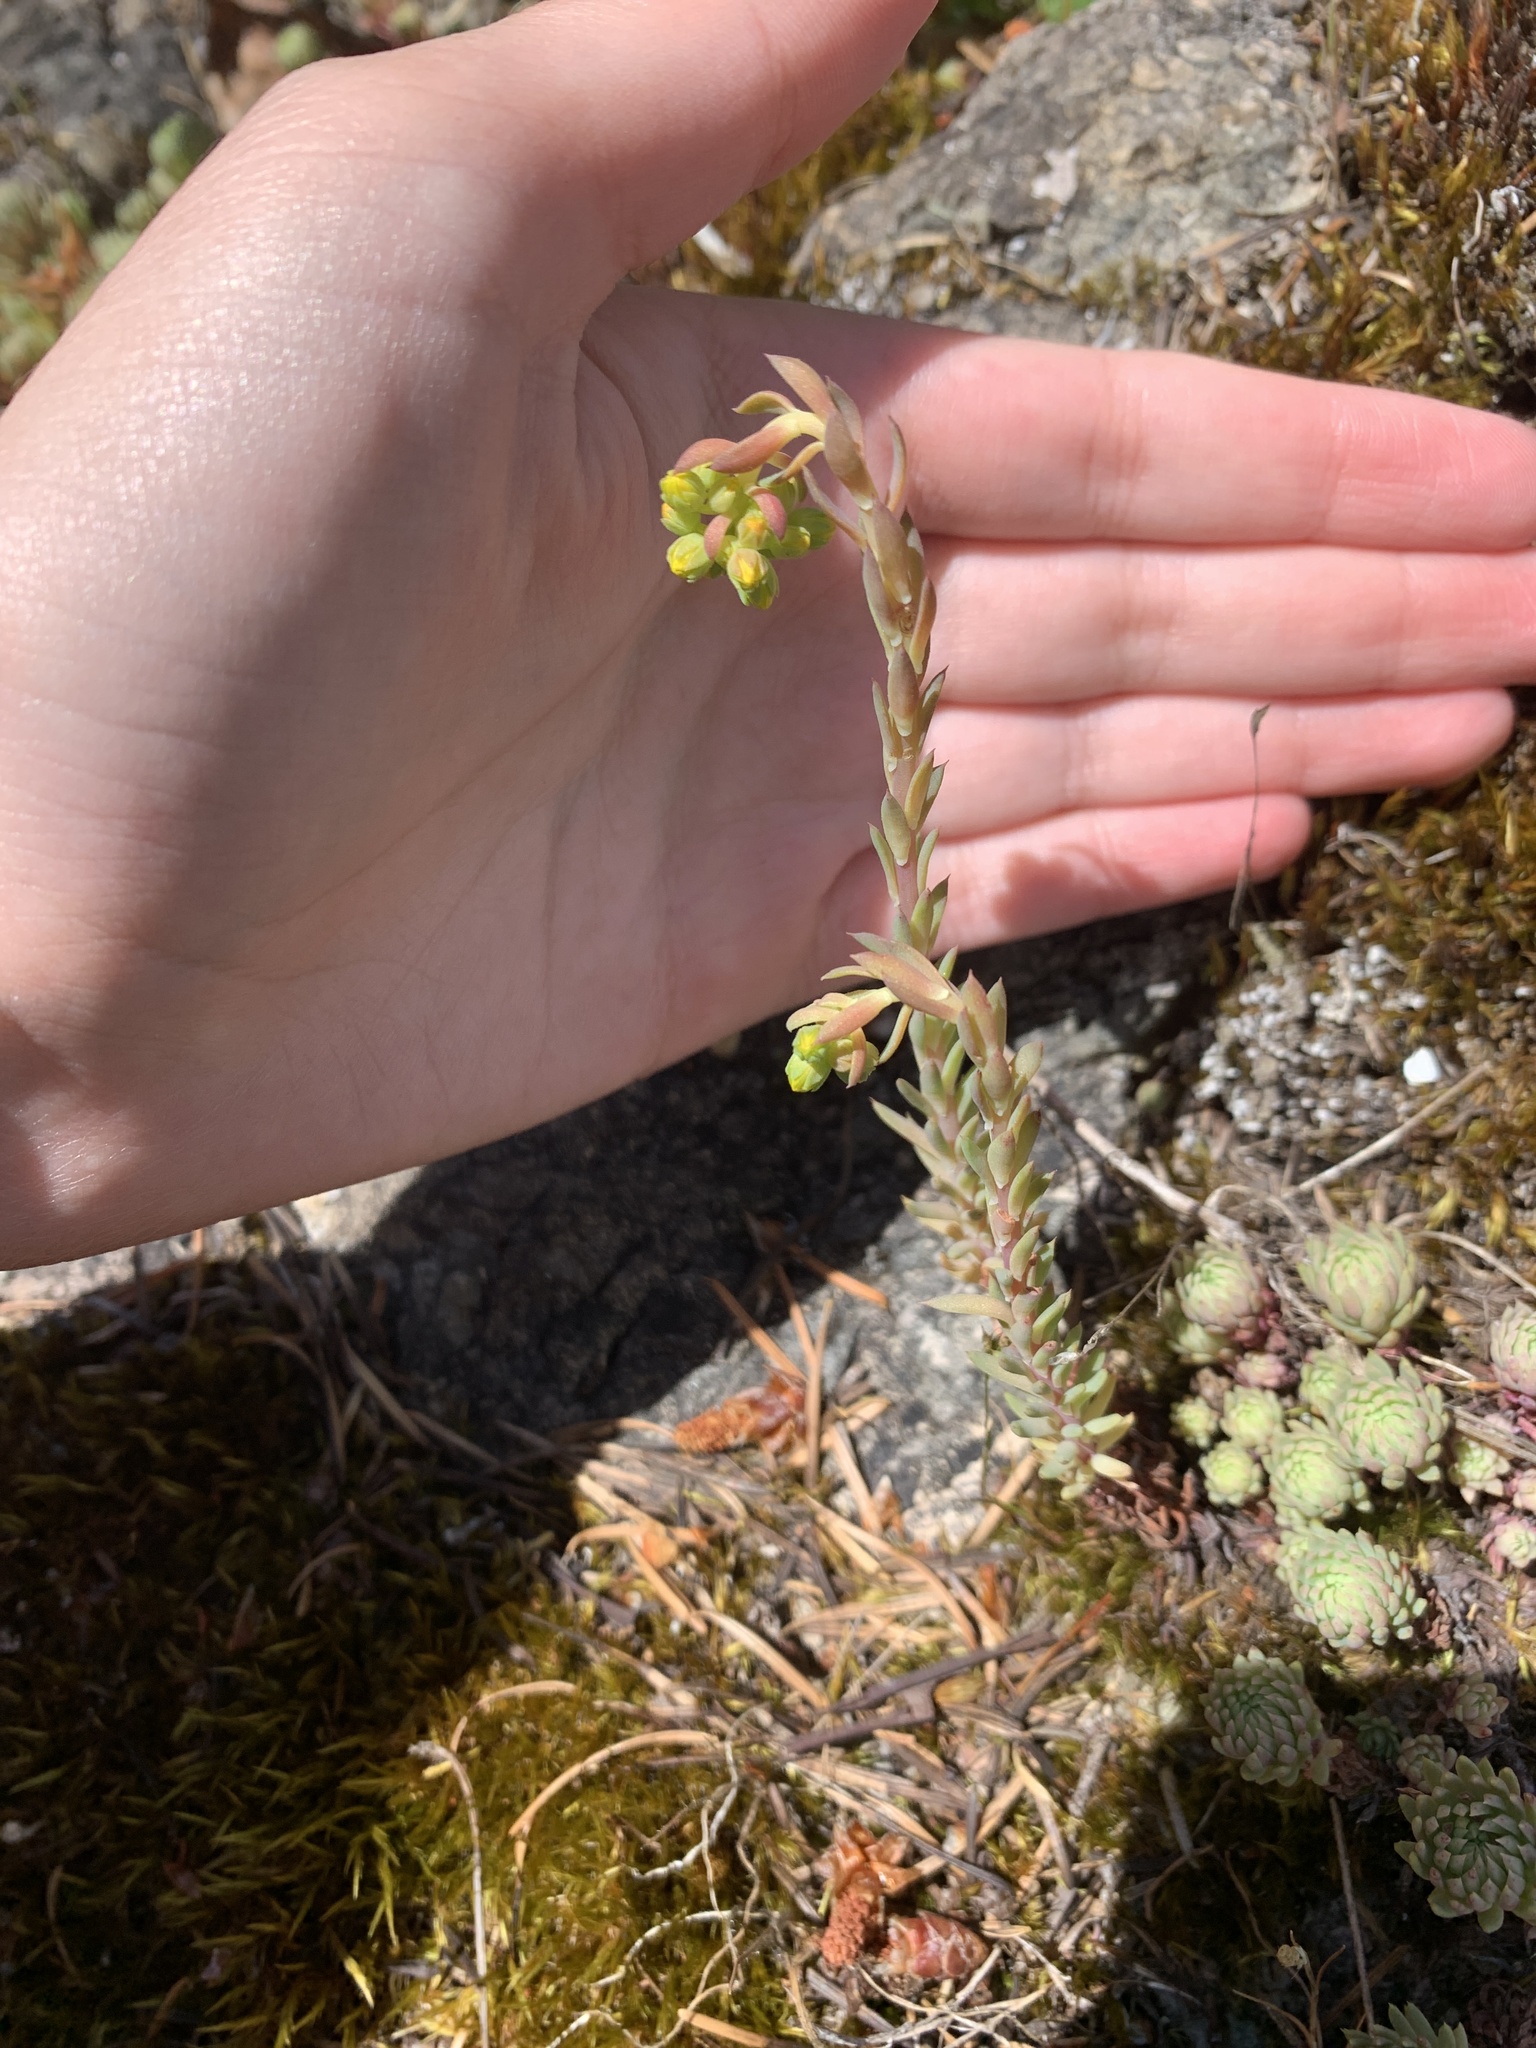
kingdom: Plantae
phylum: Tracheophyta
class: Magnoliopsida
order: Saxifragales
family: Crassulaceae
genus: Petrosedum
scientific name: Petrosedum forsterianum
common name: Forster's stonecrop
